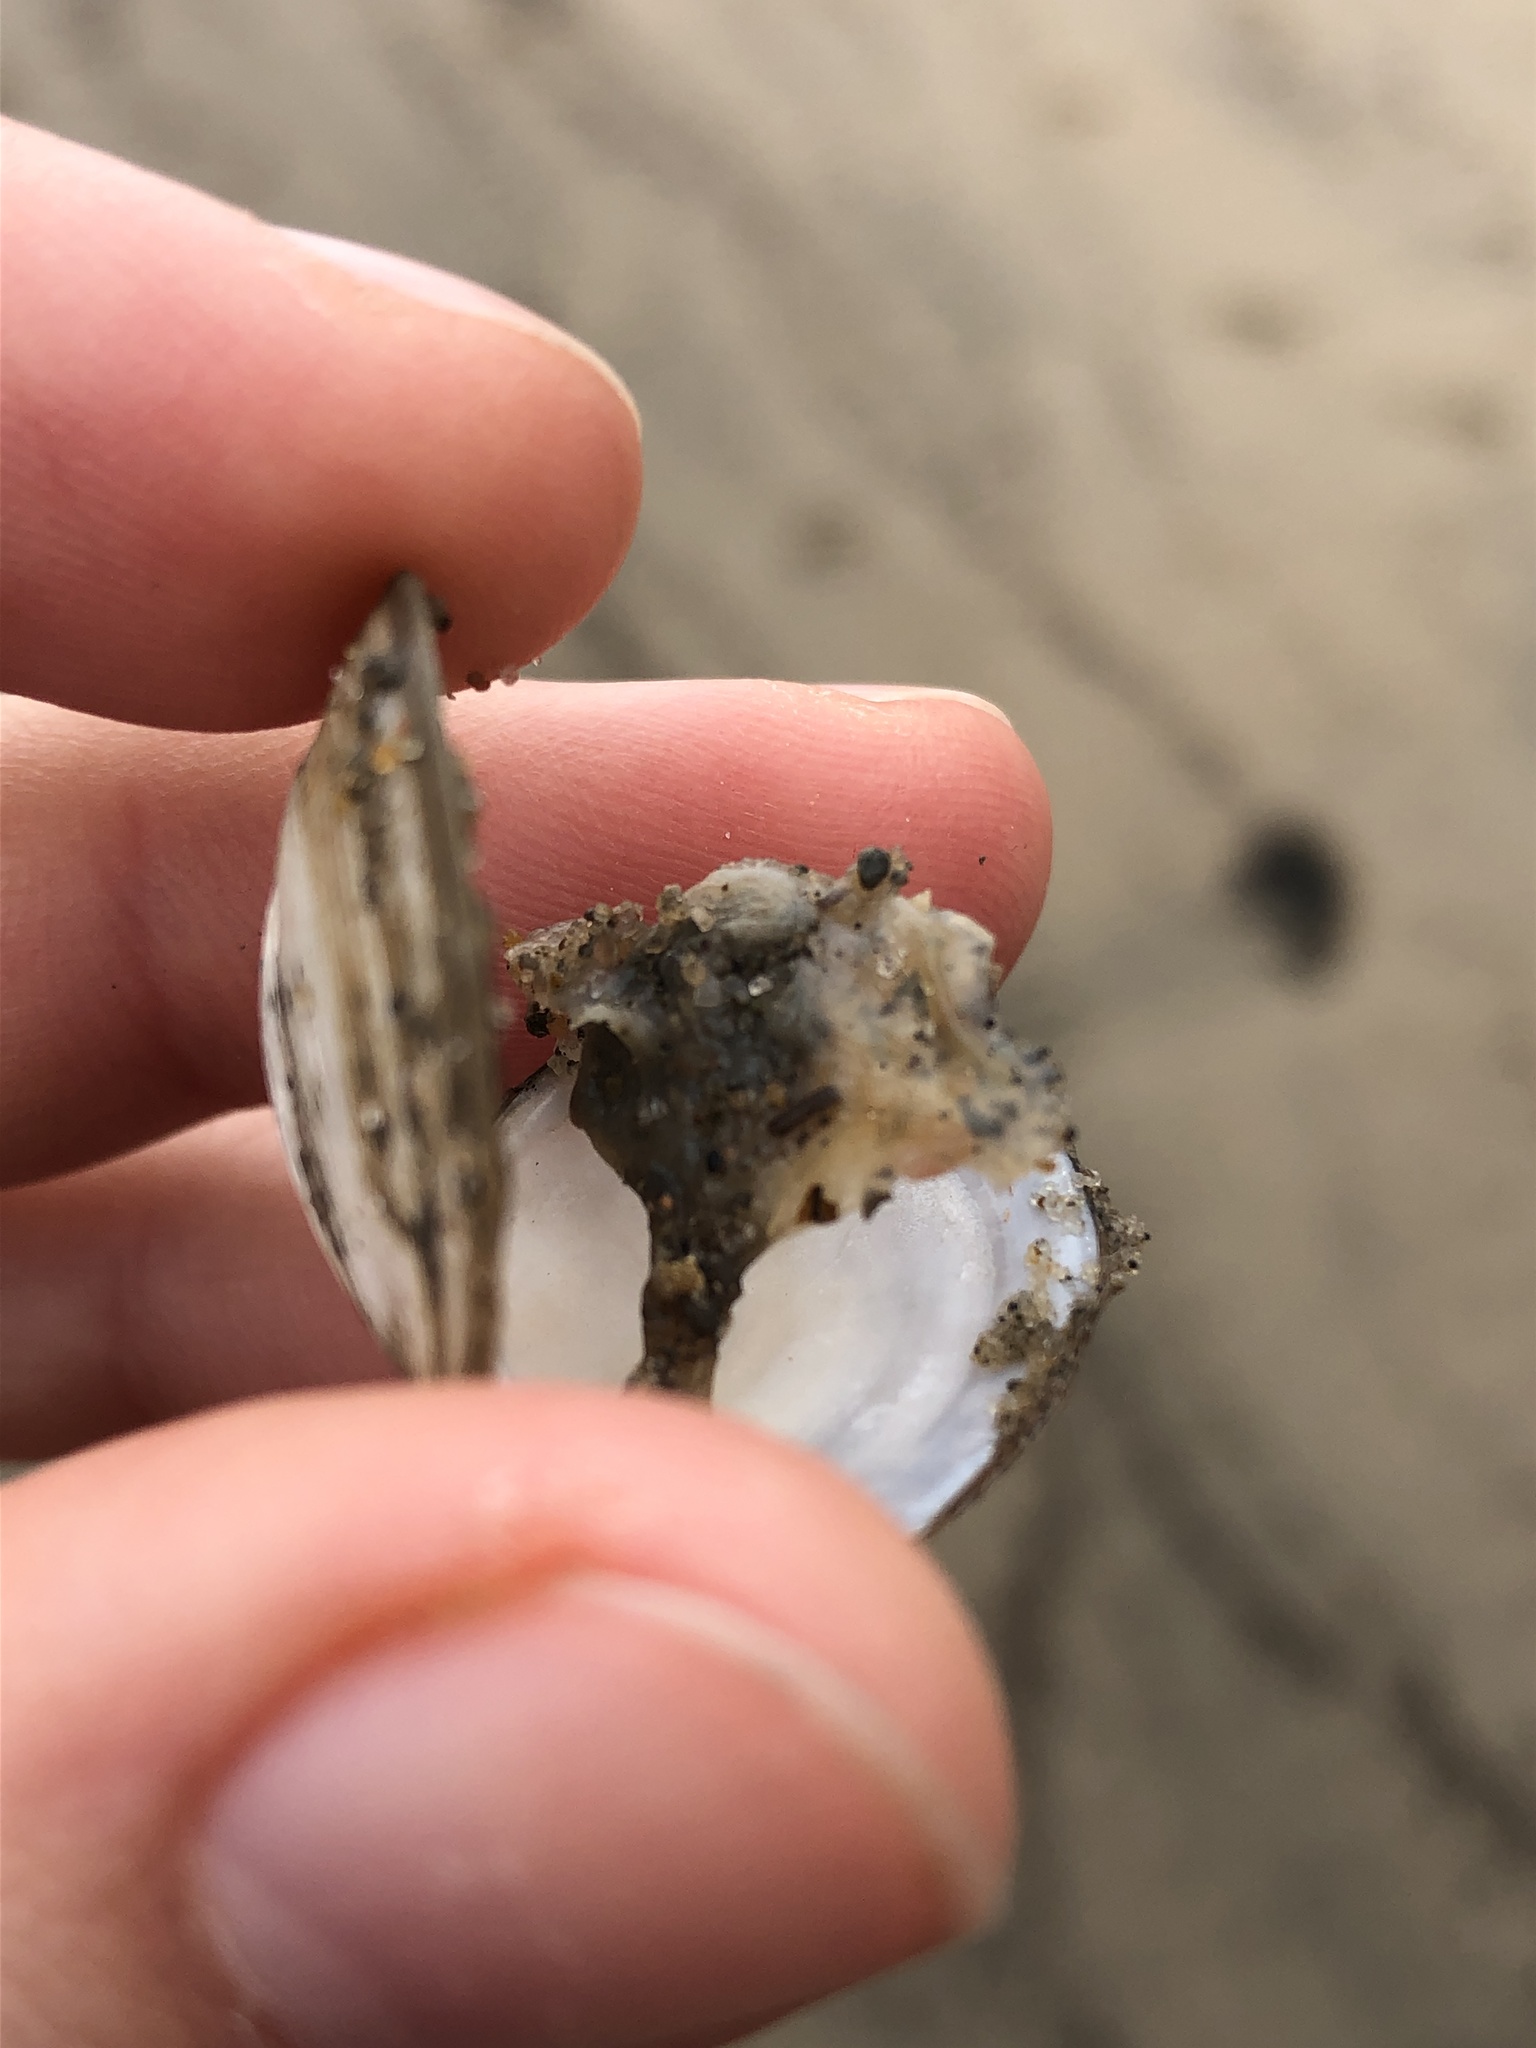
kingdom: Animalia
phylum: Mollusca
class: Bivalvia
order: Cardiida
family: Tellinidae
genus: Macoma
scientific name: Macoma balthica
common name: Baltic tellin
